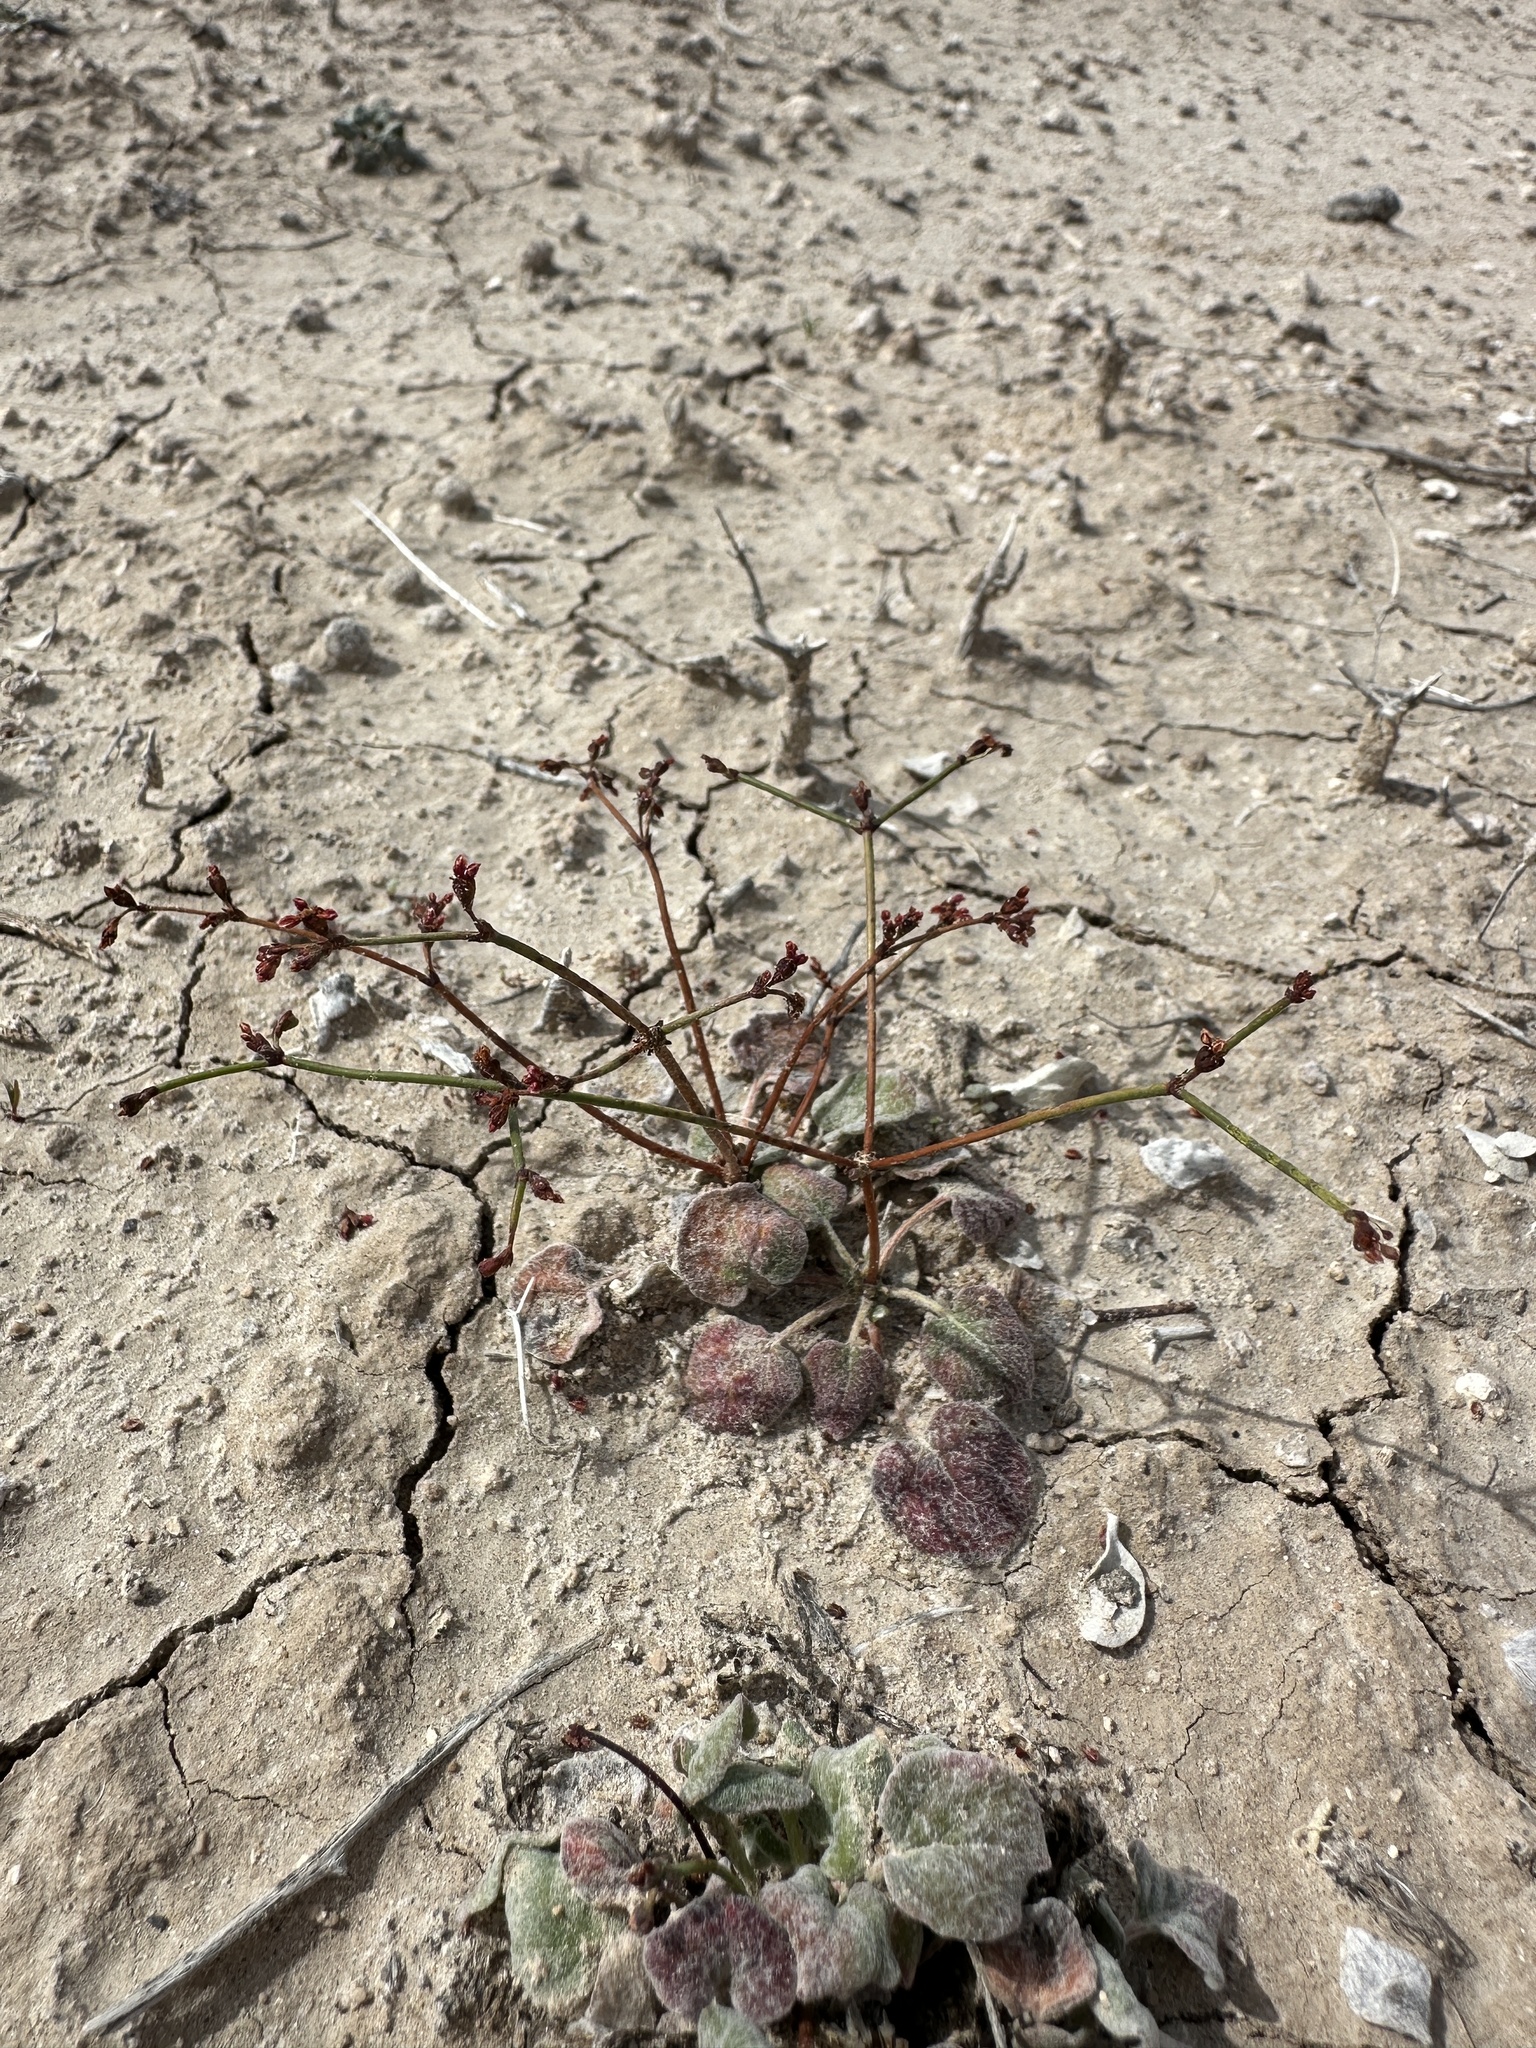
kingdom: Plantae
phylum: Tracheophyta
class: Magnoliopsida
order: Caryophyllales
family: Polygonaceae
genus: Eriogonum
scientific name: Eriogonum bifurcatum
